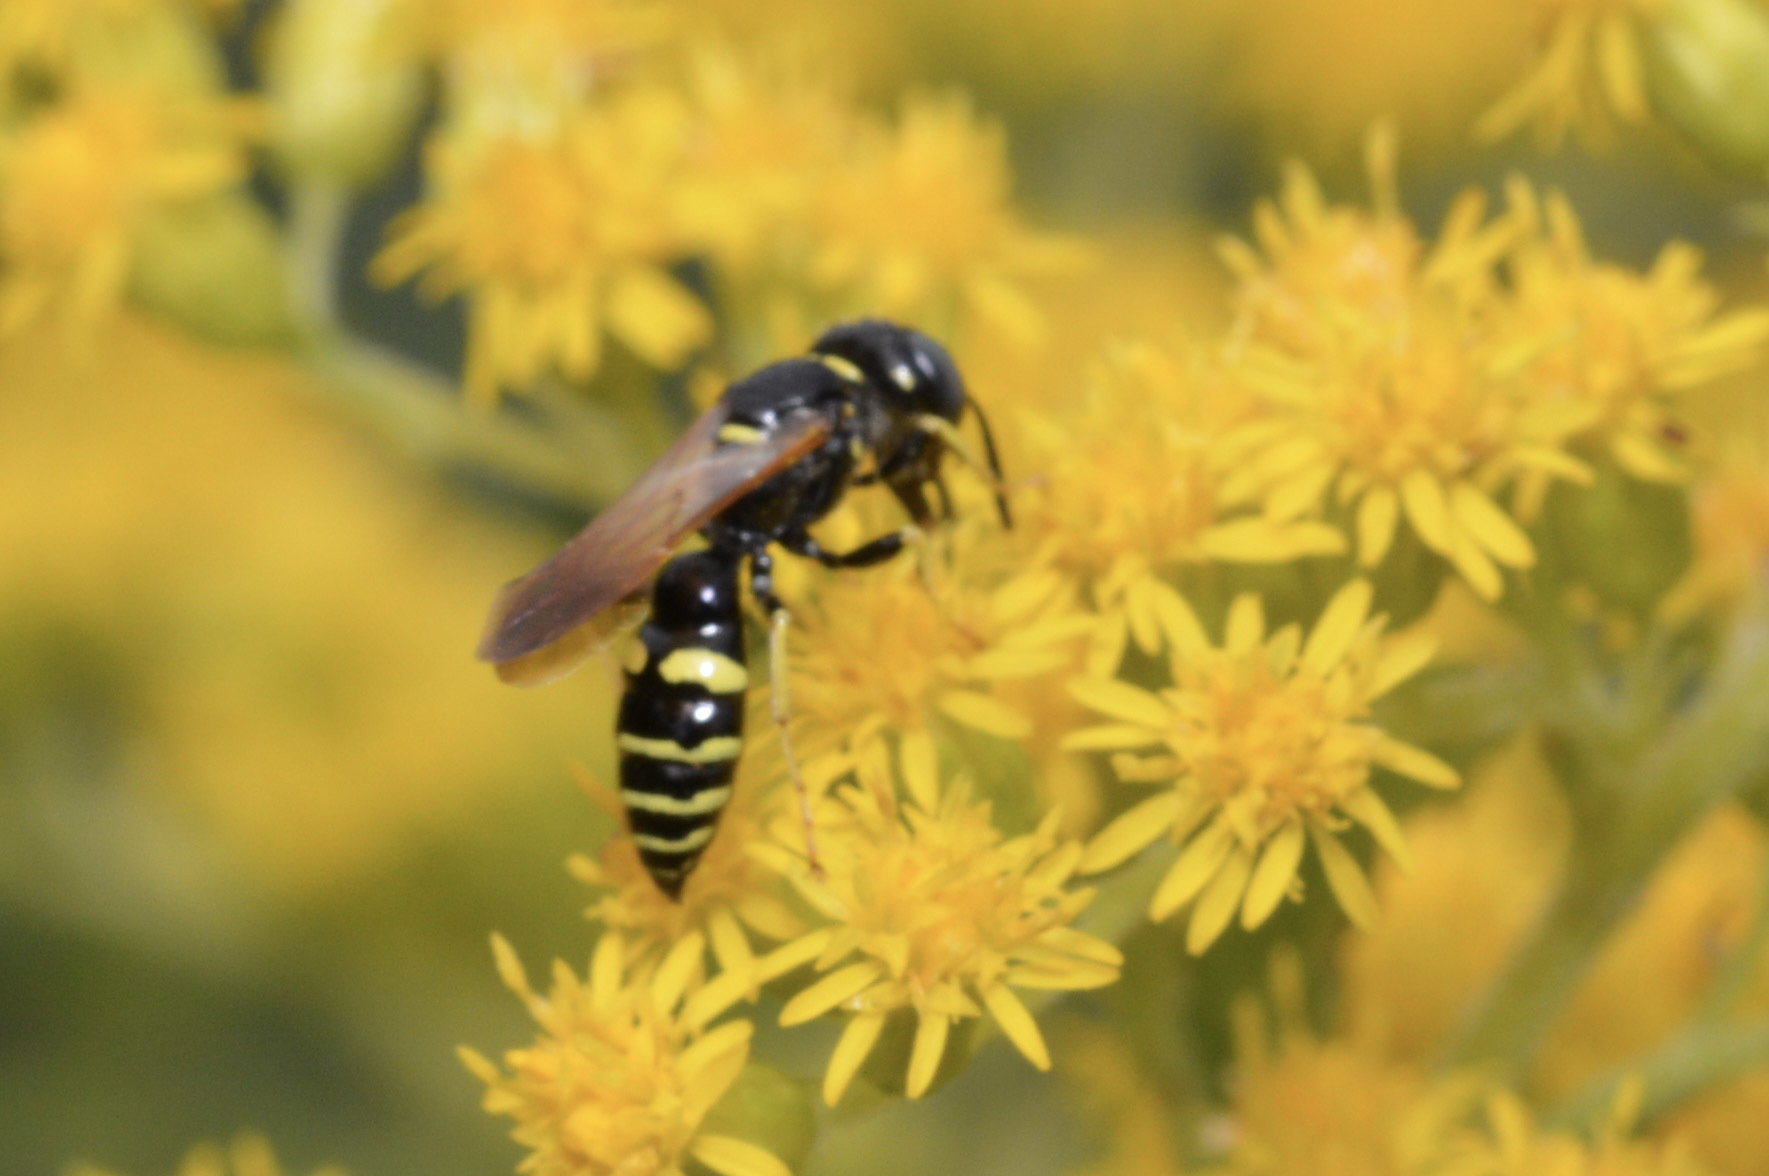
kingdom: Animalia
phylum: Arthropoda
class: Insecta
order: Hymenoptera
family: Crabronidae
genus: Philanthus
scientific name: Philanthus bilunatus
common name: Two moons beewolf
